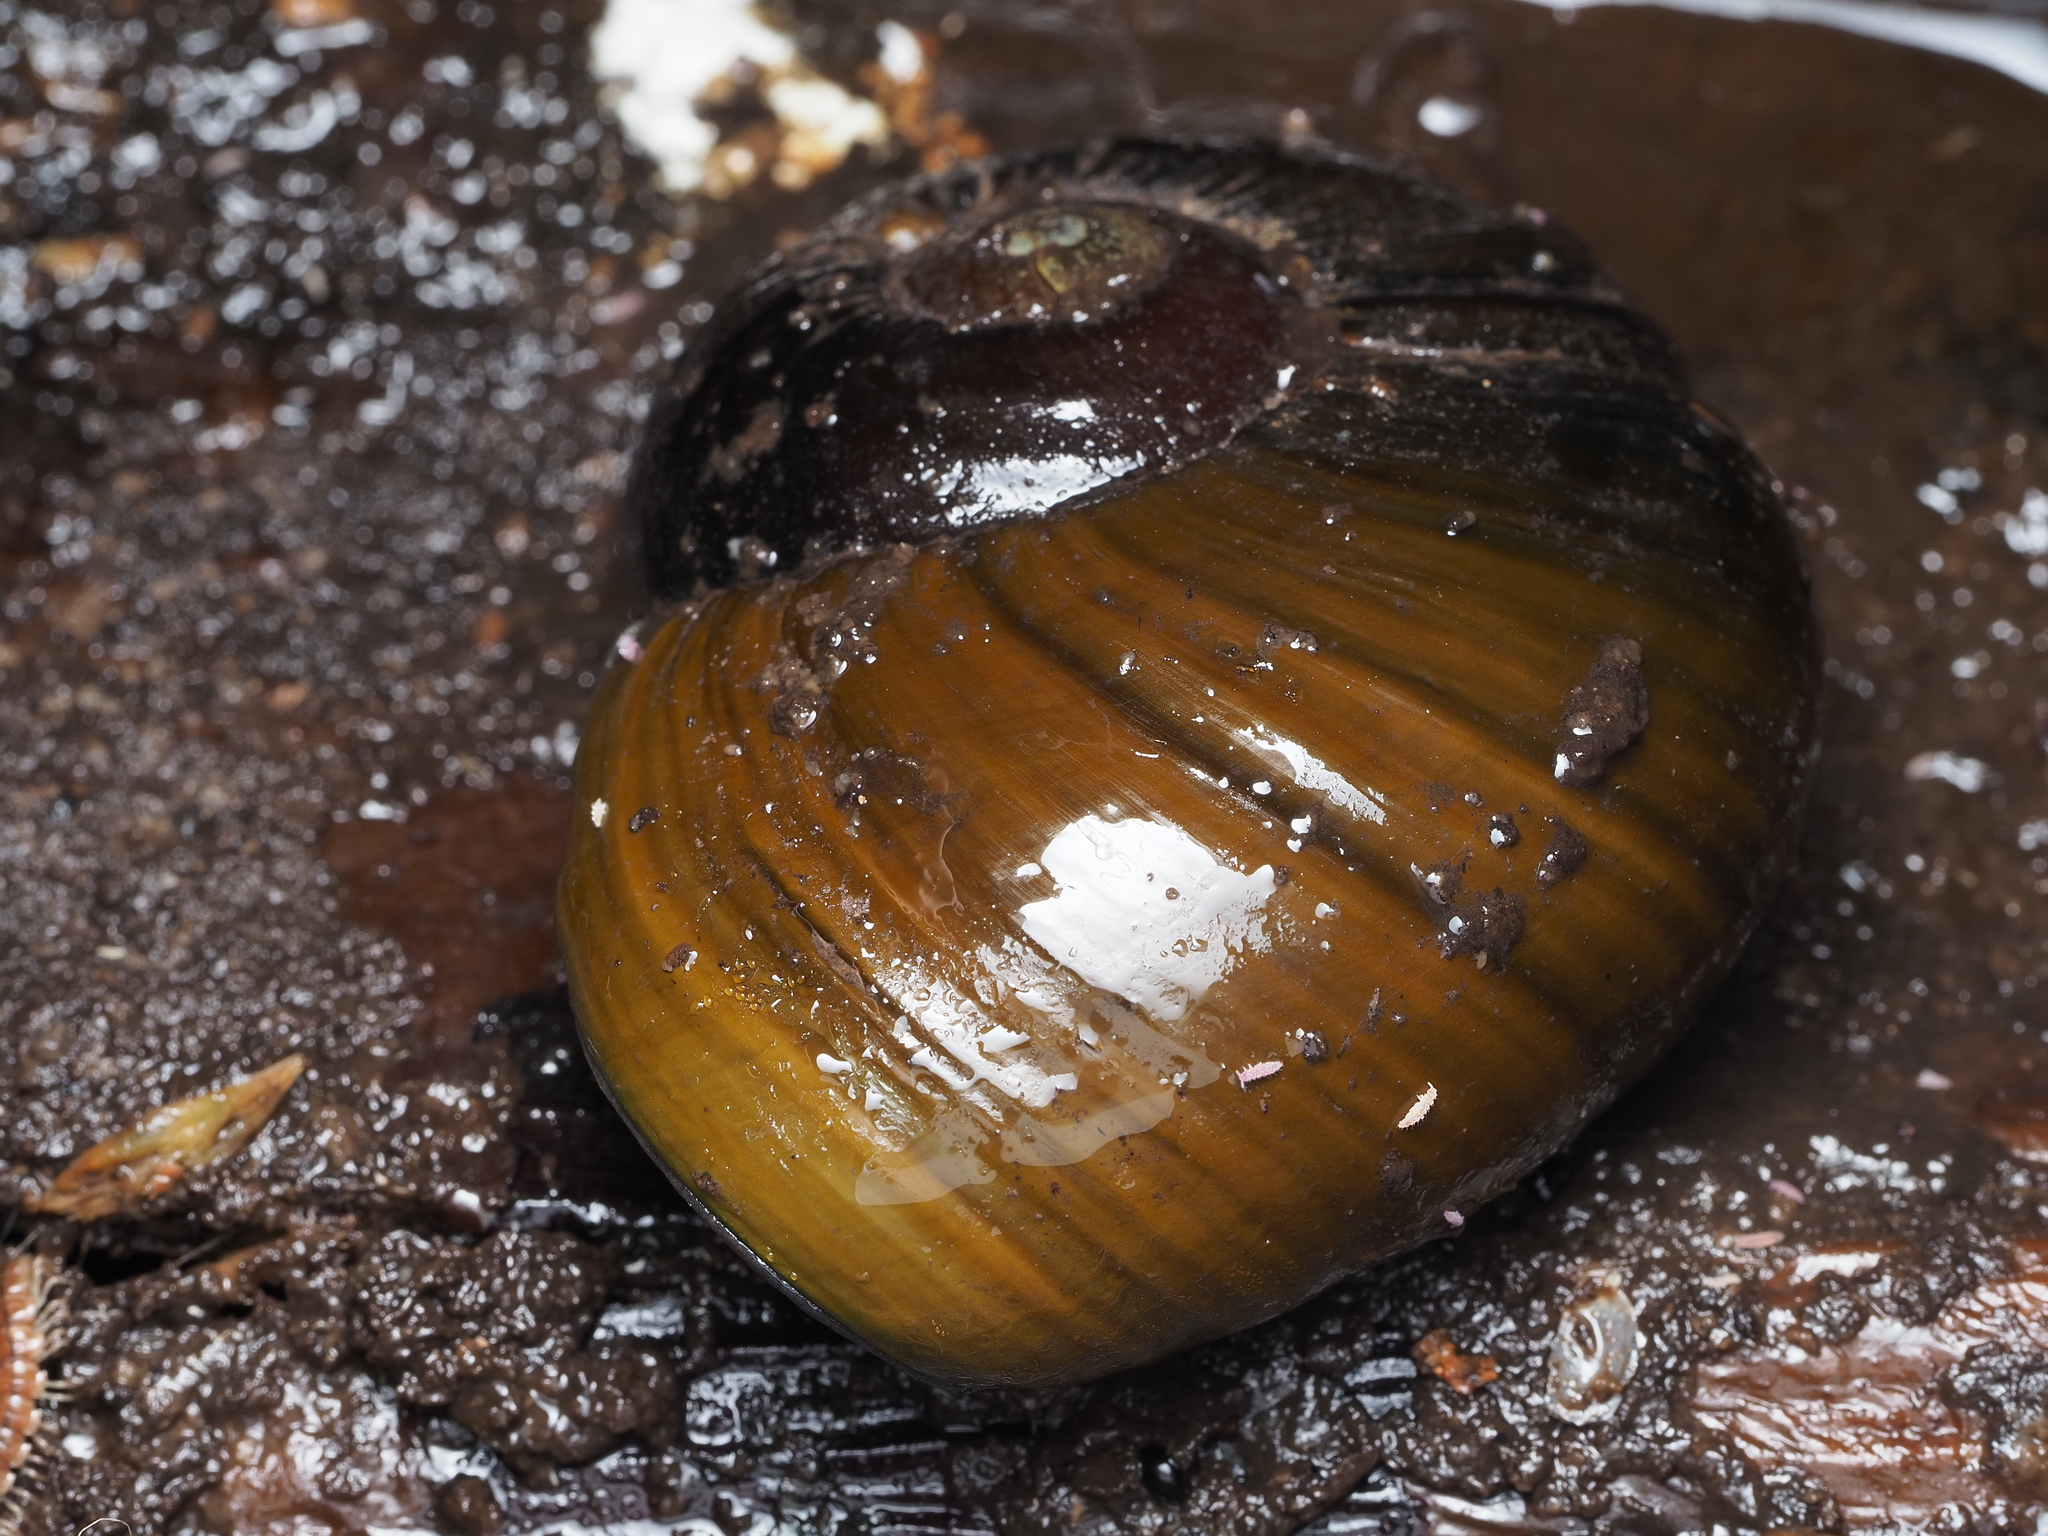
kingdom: Animalia
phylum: Mollusca
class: Gastropoda
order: Stylommatophora
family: Rhytididae
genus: Paryphanta
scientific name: Paryphanta busbyi
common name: Kauri snail
